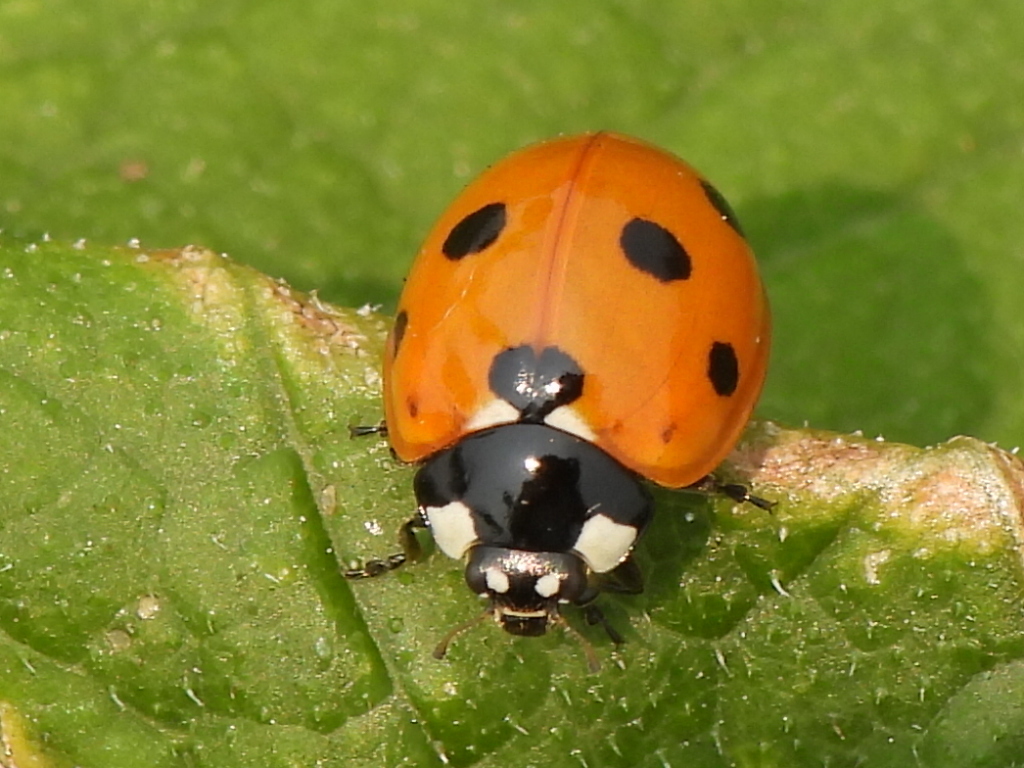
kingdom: Animalia
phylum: Arthropoda
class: Insecta
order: Coleoptera
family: Coccinellidae
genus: Coccinella
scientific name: Coccinella septempunctata
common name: Sevenspotted lady beetle
